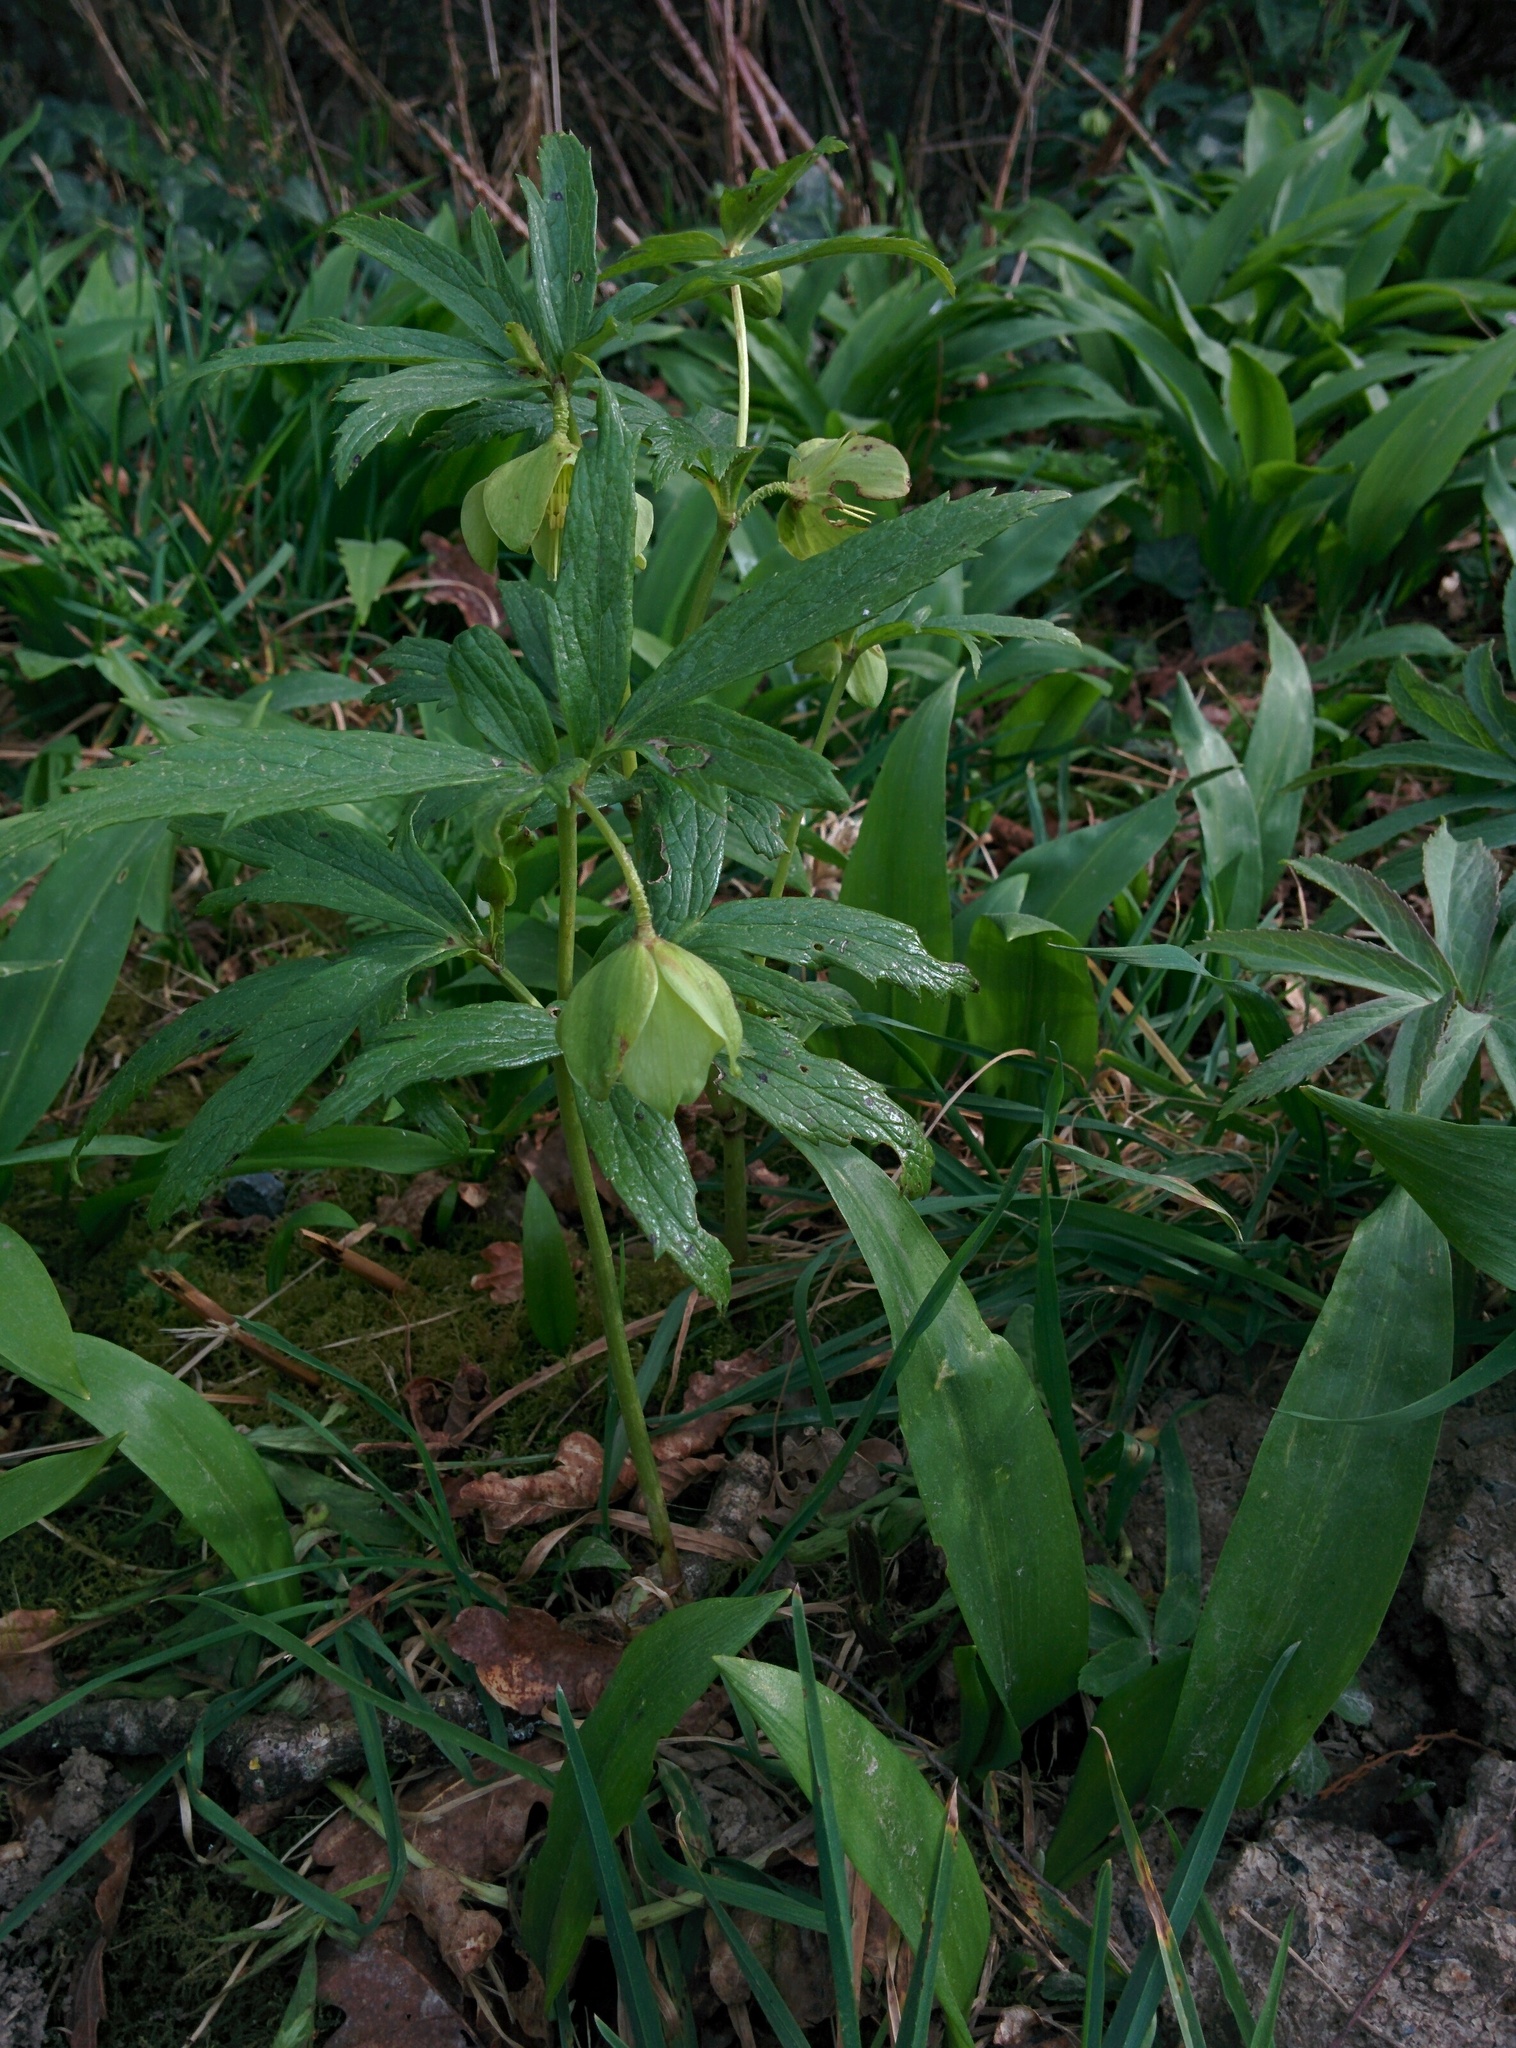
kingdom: Plantae
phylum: Tracheophyta
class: Magnoliopsida
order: Ranunculales
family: Ranunculaceae
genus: Helleborus
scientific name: Helleborus viridis
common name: Green hellebore
